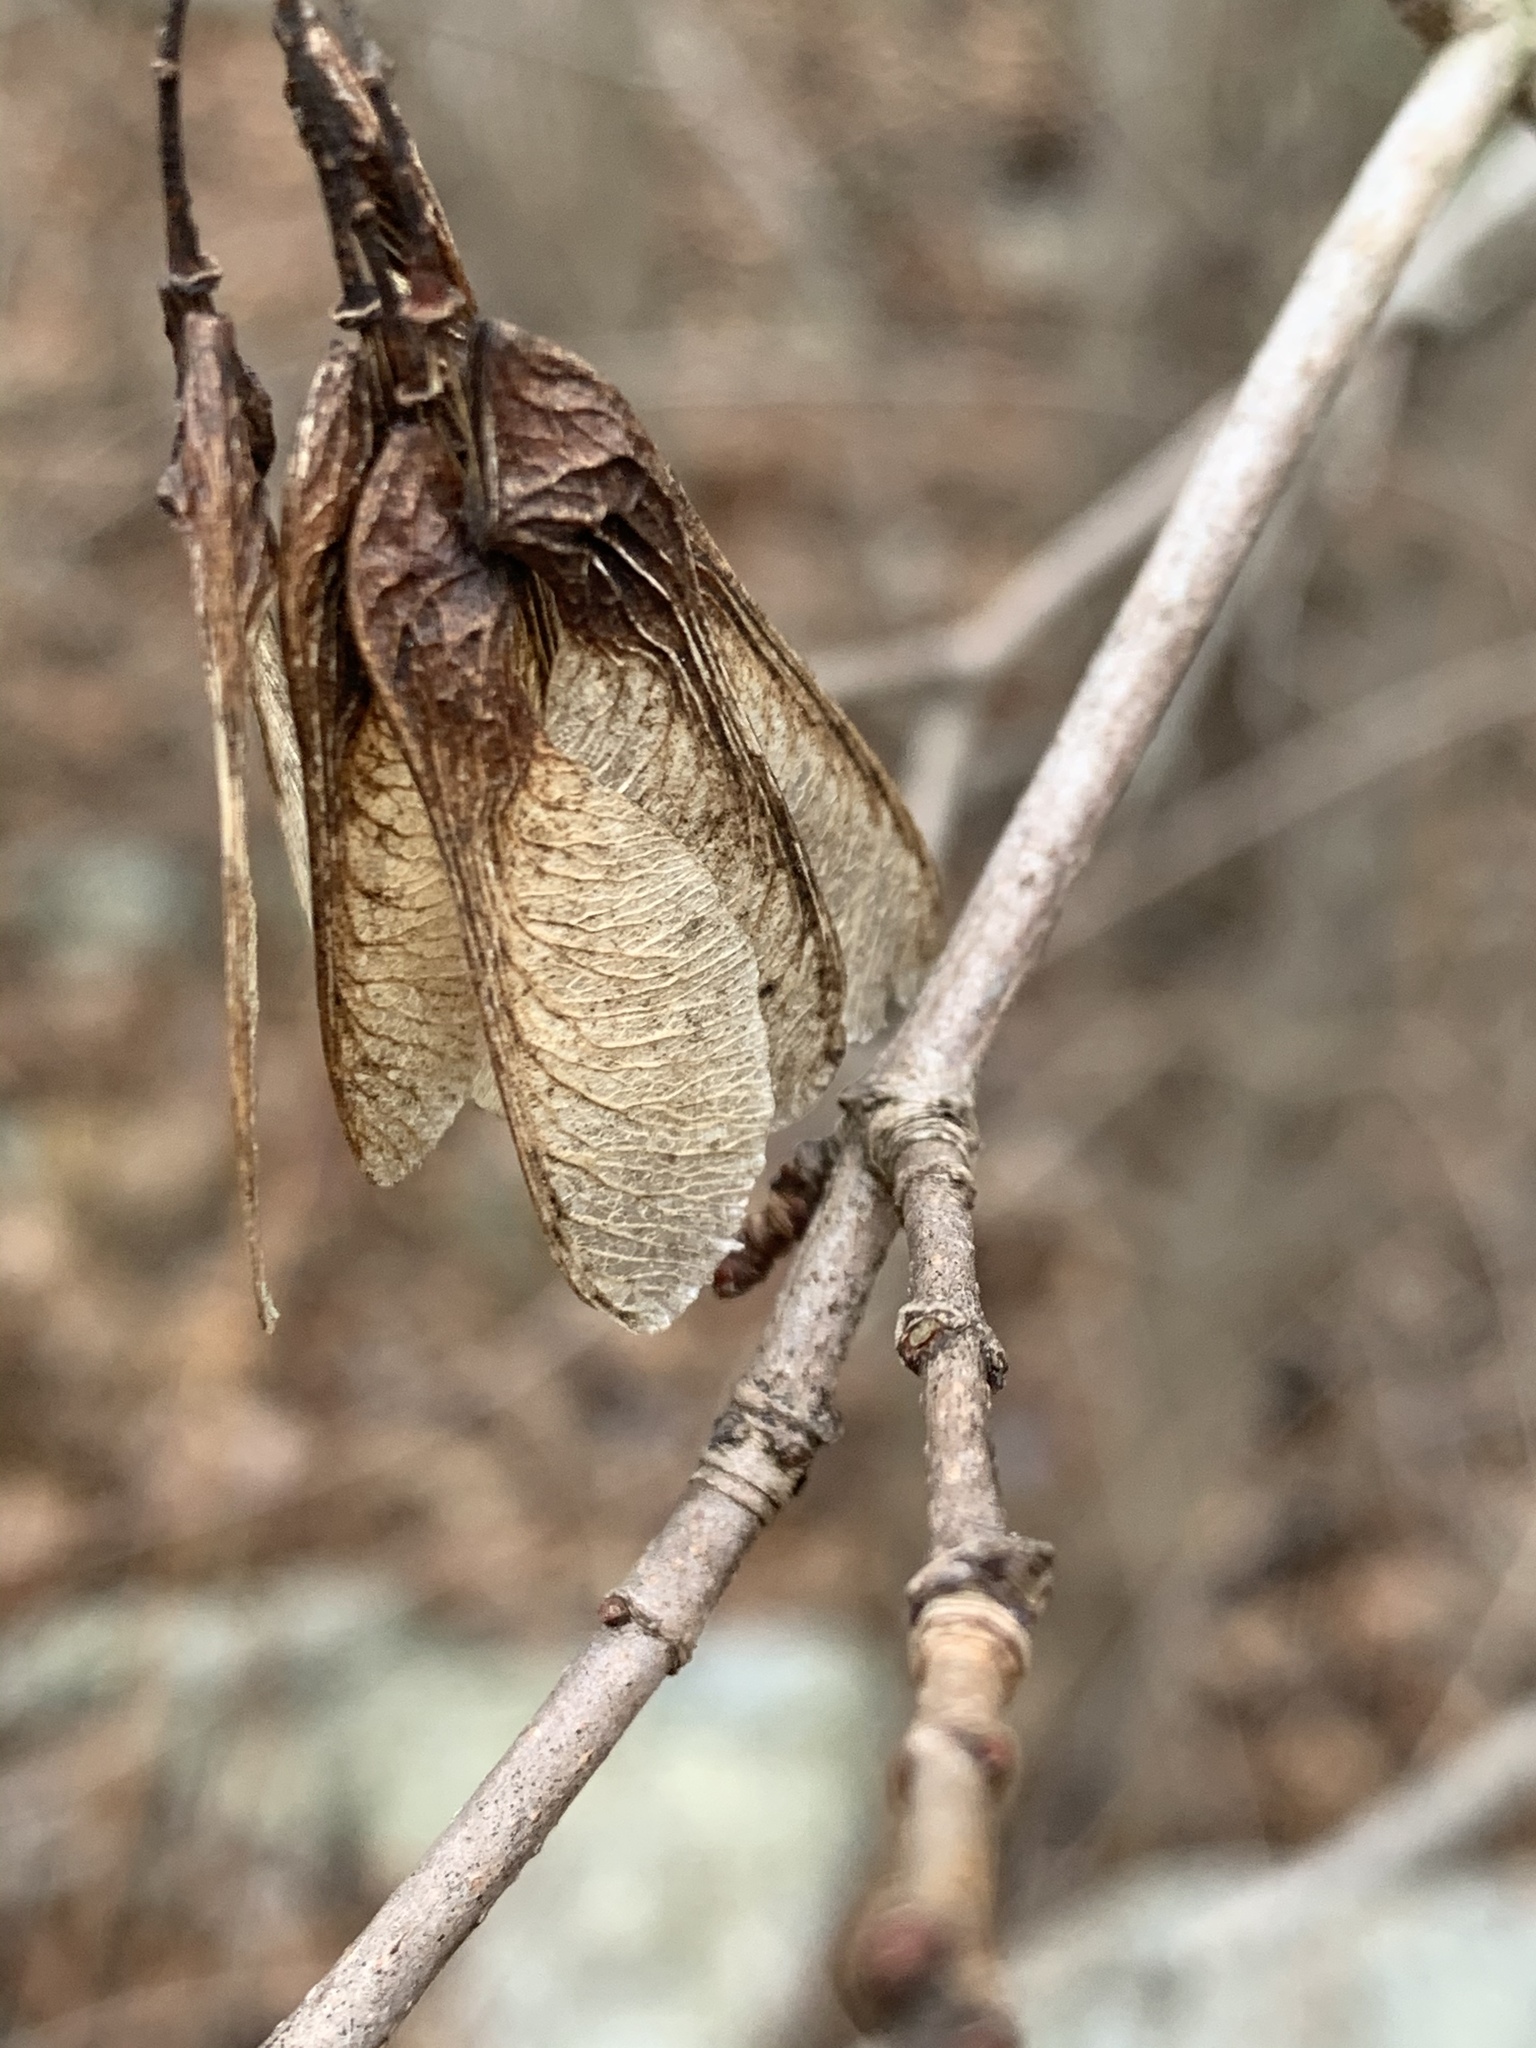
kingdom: Plantae
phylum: Tracheophyta
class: Magnoliopsida
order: Sapindales
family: Sapindaceae
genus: Acer
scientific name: Acer tataricum
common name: Tartar maple
